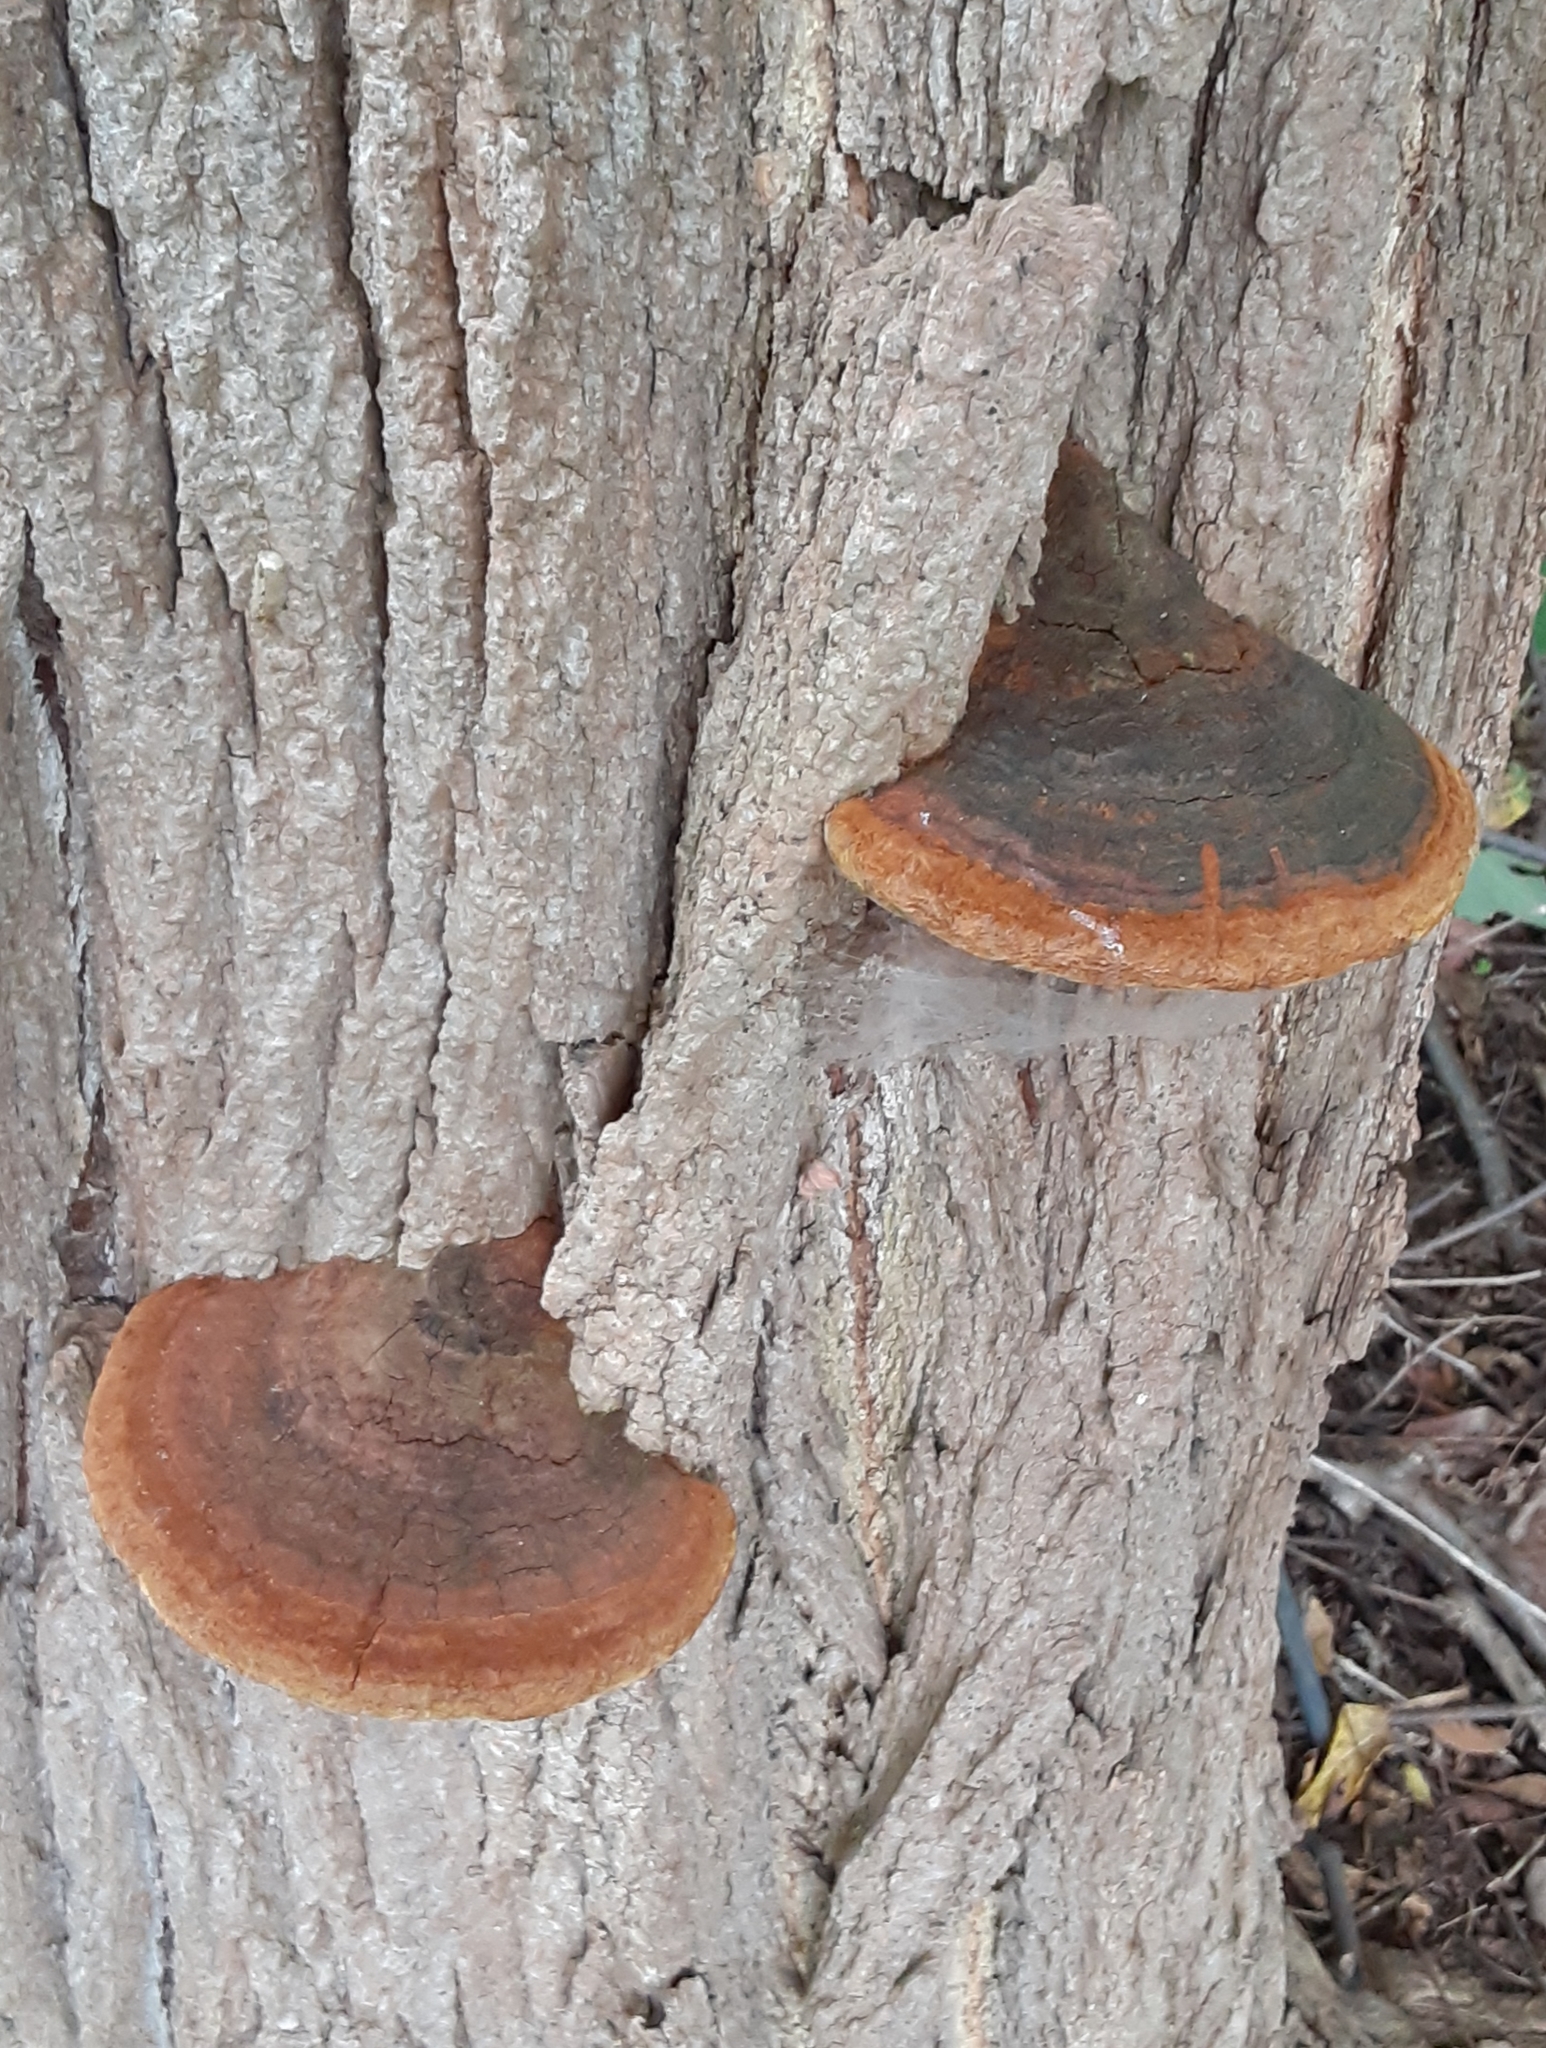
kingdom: Fungi
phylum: Basidiomycota
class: Agaricomycetes
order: Hymenochaetales
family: Hymenochaetaceae
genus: Phellinus
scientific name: Phellinus robiniae
